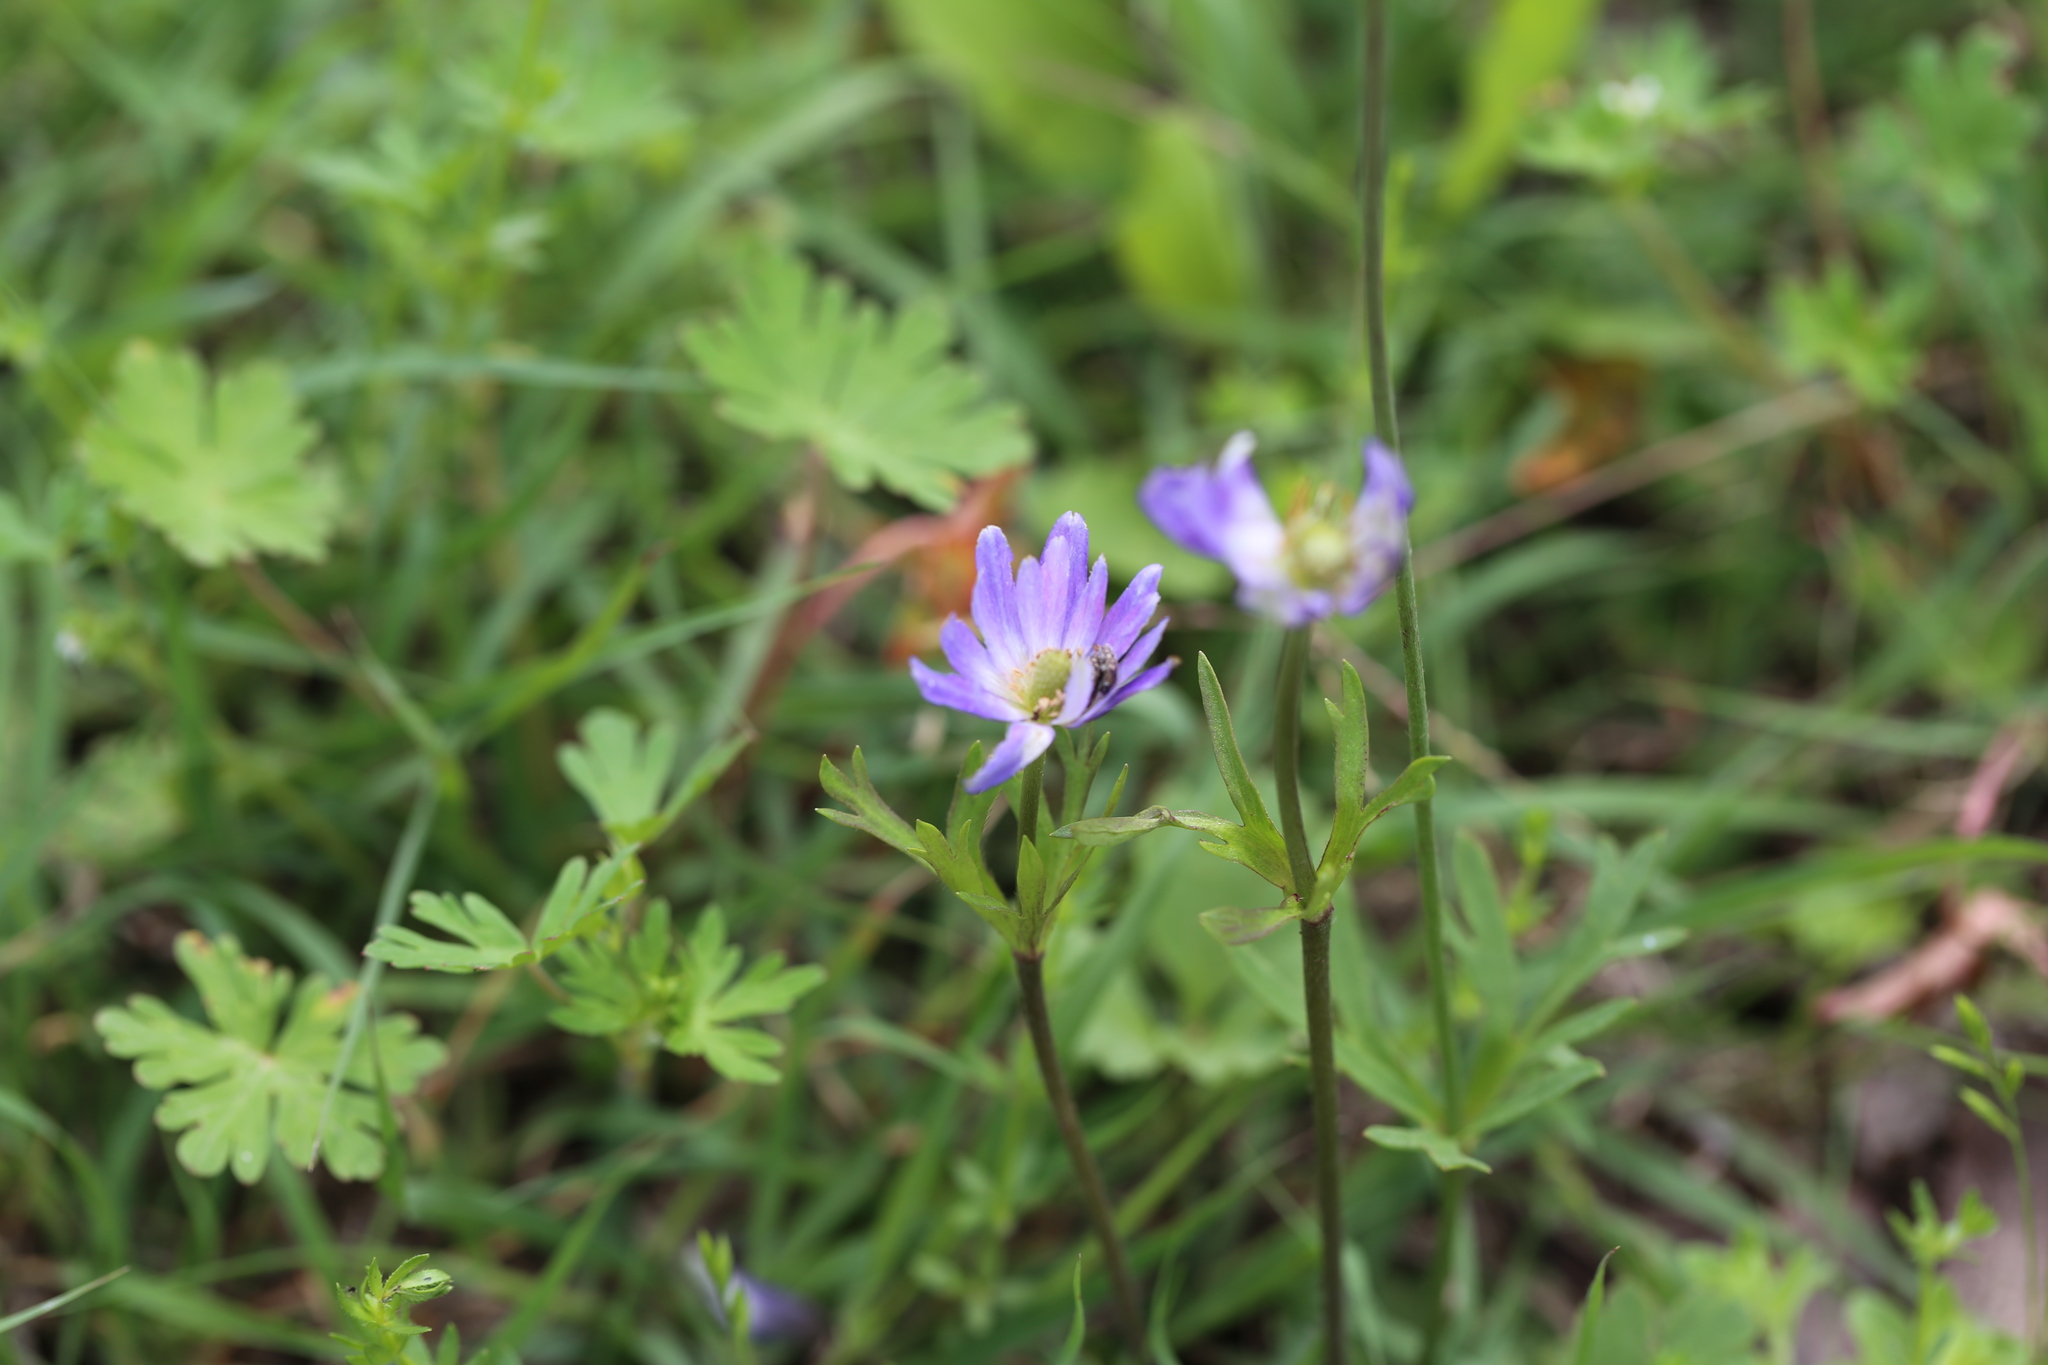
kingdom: Plantae
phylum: Tracheophyta
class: Magnoliopsida
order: Ranunculales
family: Ranunculaceae
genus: Anemone
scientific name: Anemone berlandieri
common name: Ten-petal anemone
